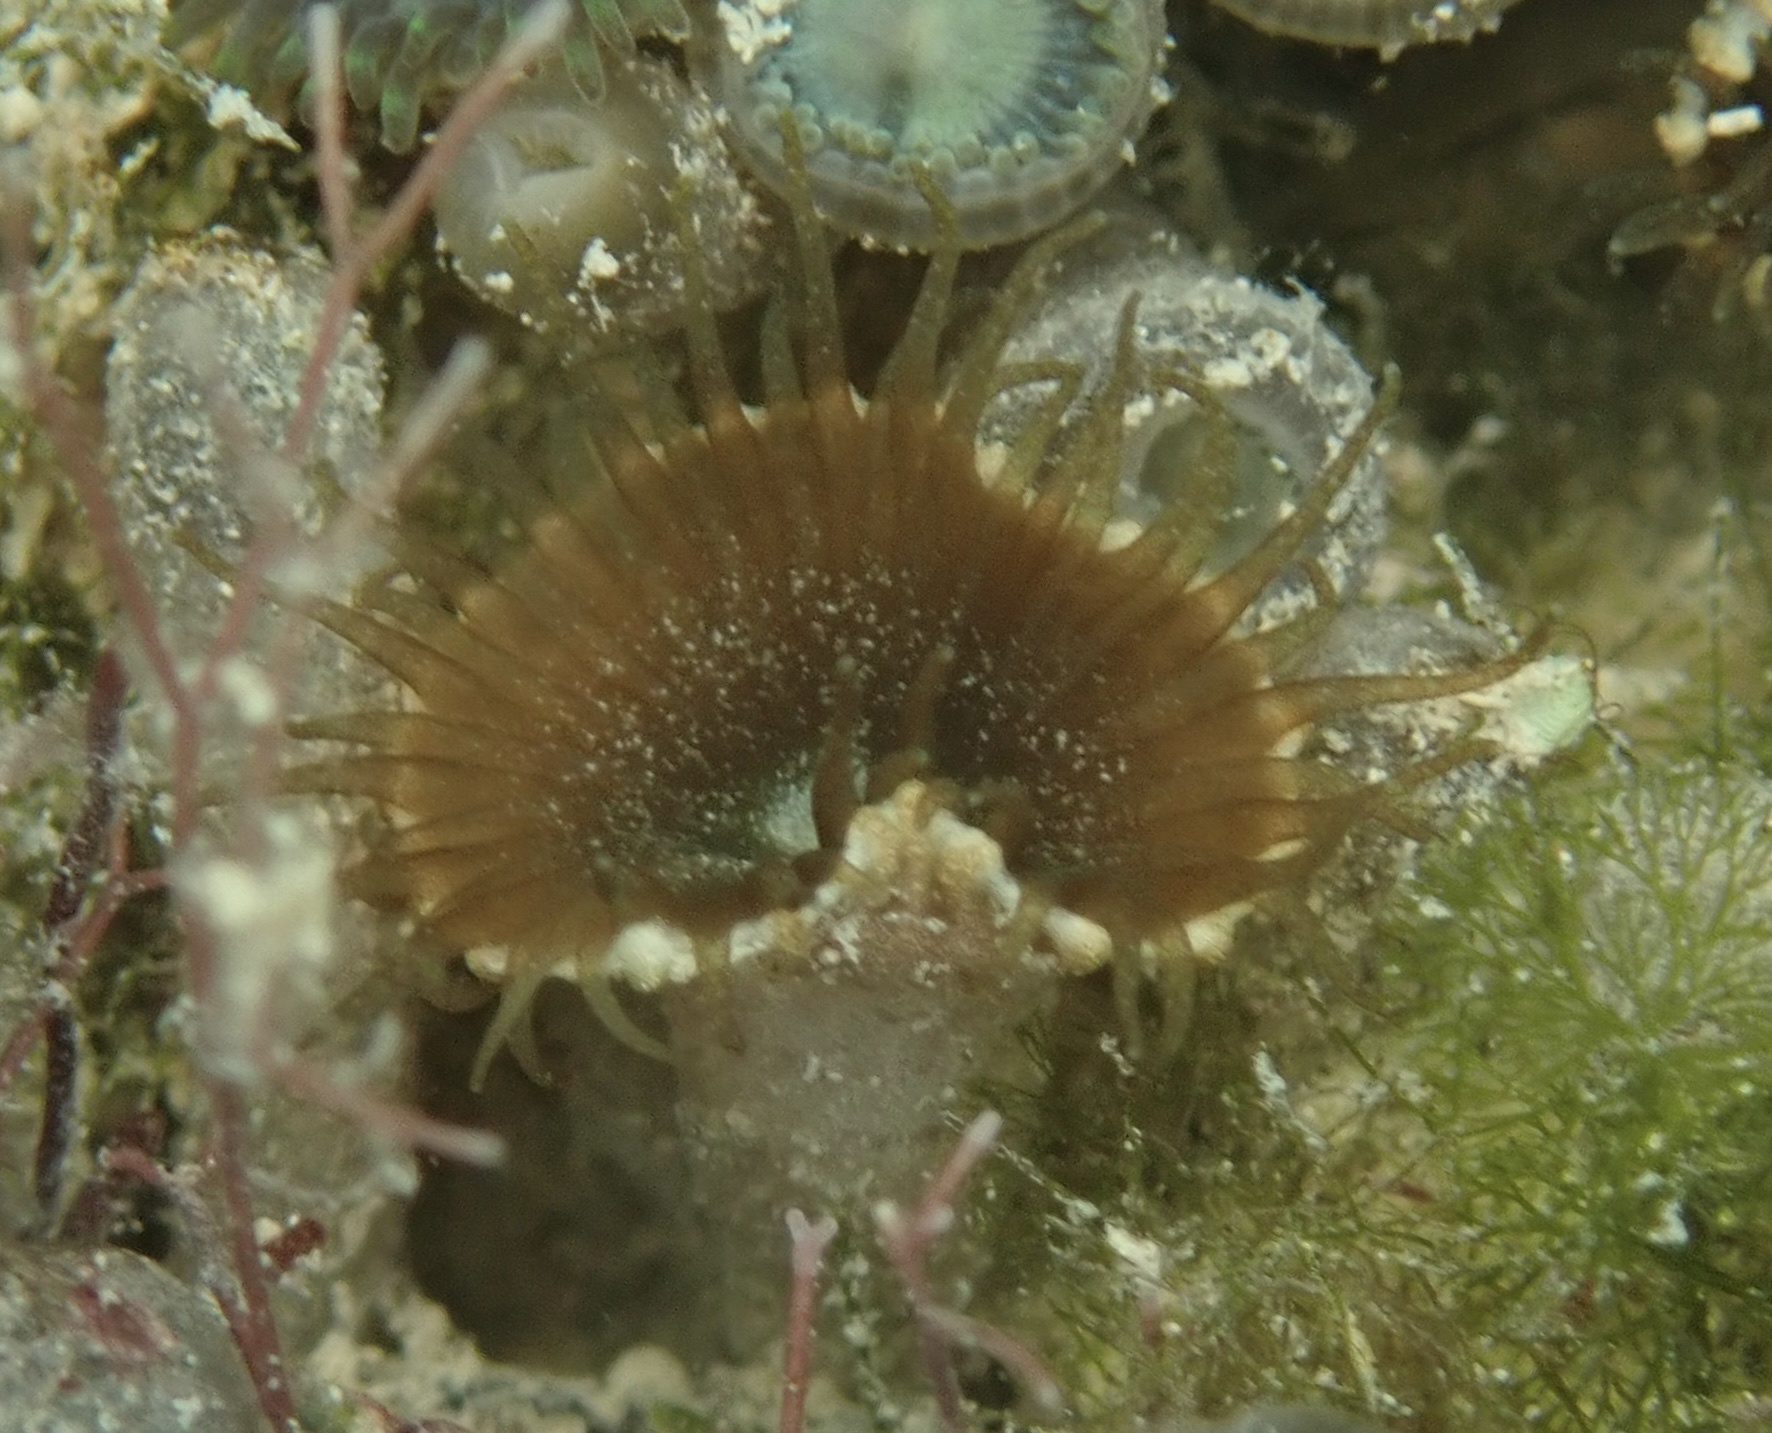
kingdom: Animalia
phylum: Cnidaria
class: Anthozoa
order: Zoantharia
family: Sphenopidae
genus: Palythoa
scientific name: Palythoa grandiflora
